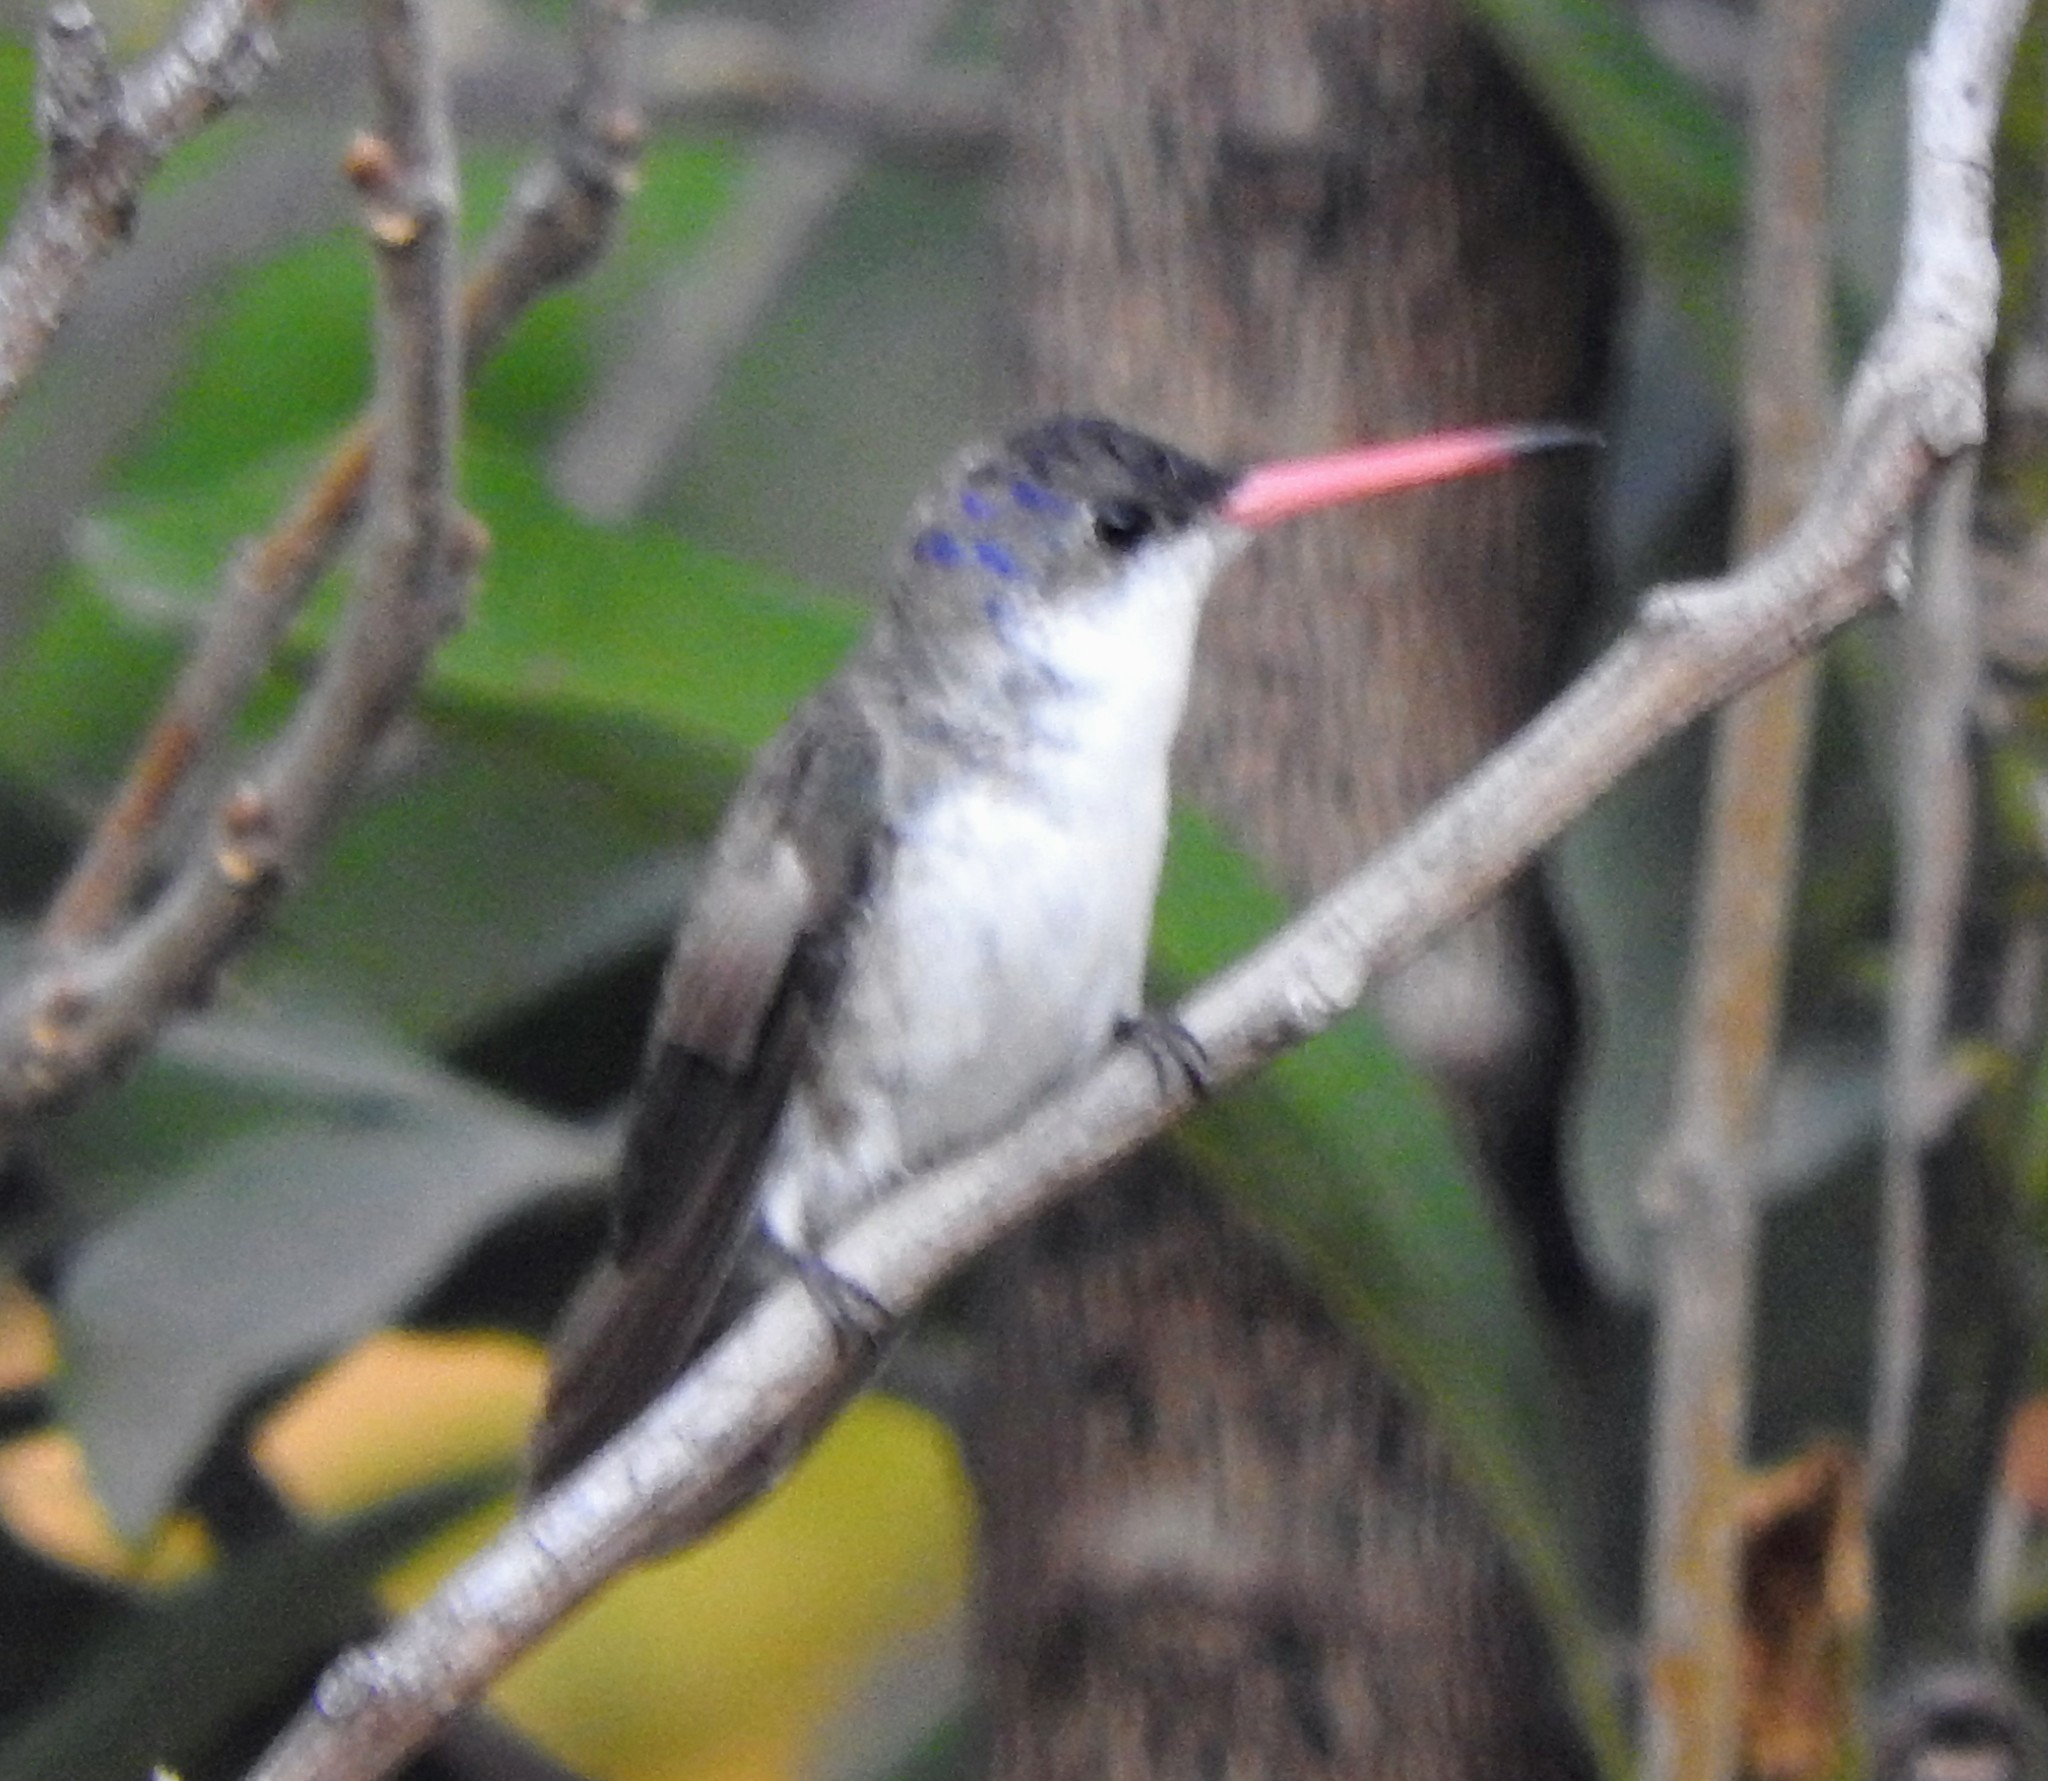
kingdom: Animalia
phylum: Chordata
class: Aves
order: Apodiformes
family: Trochilidae
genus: Leucolia
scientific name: Leucolia violiceps
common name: Violet-crowned hummingbird
